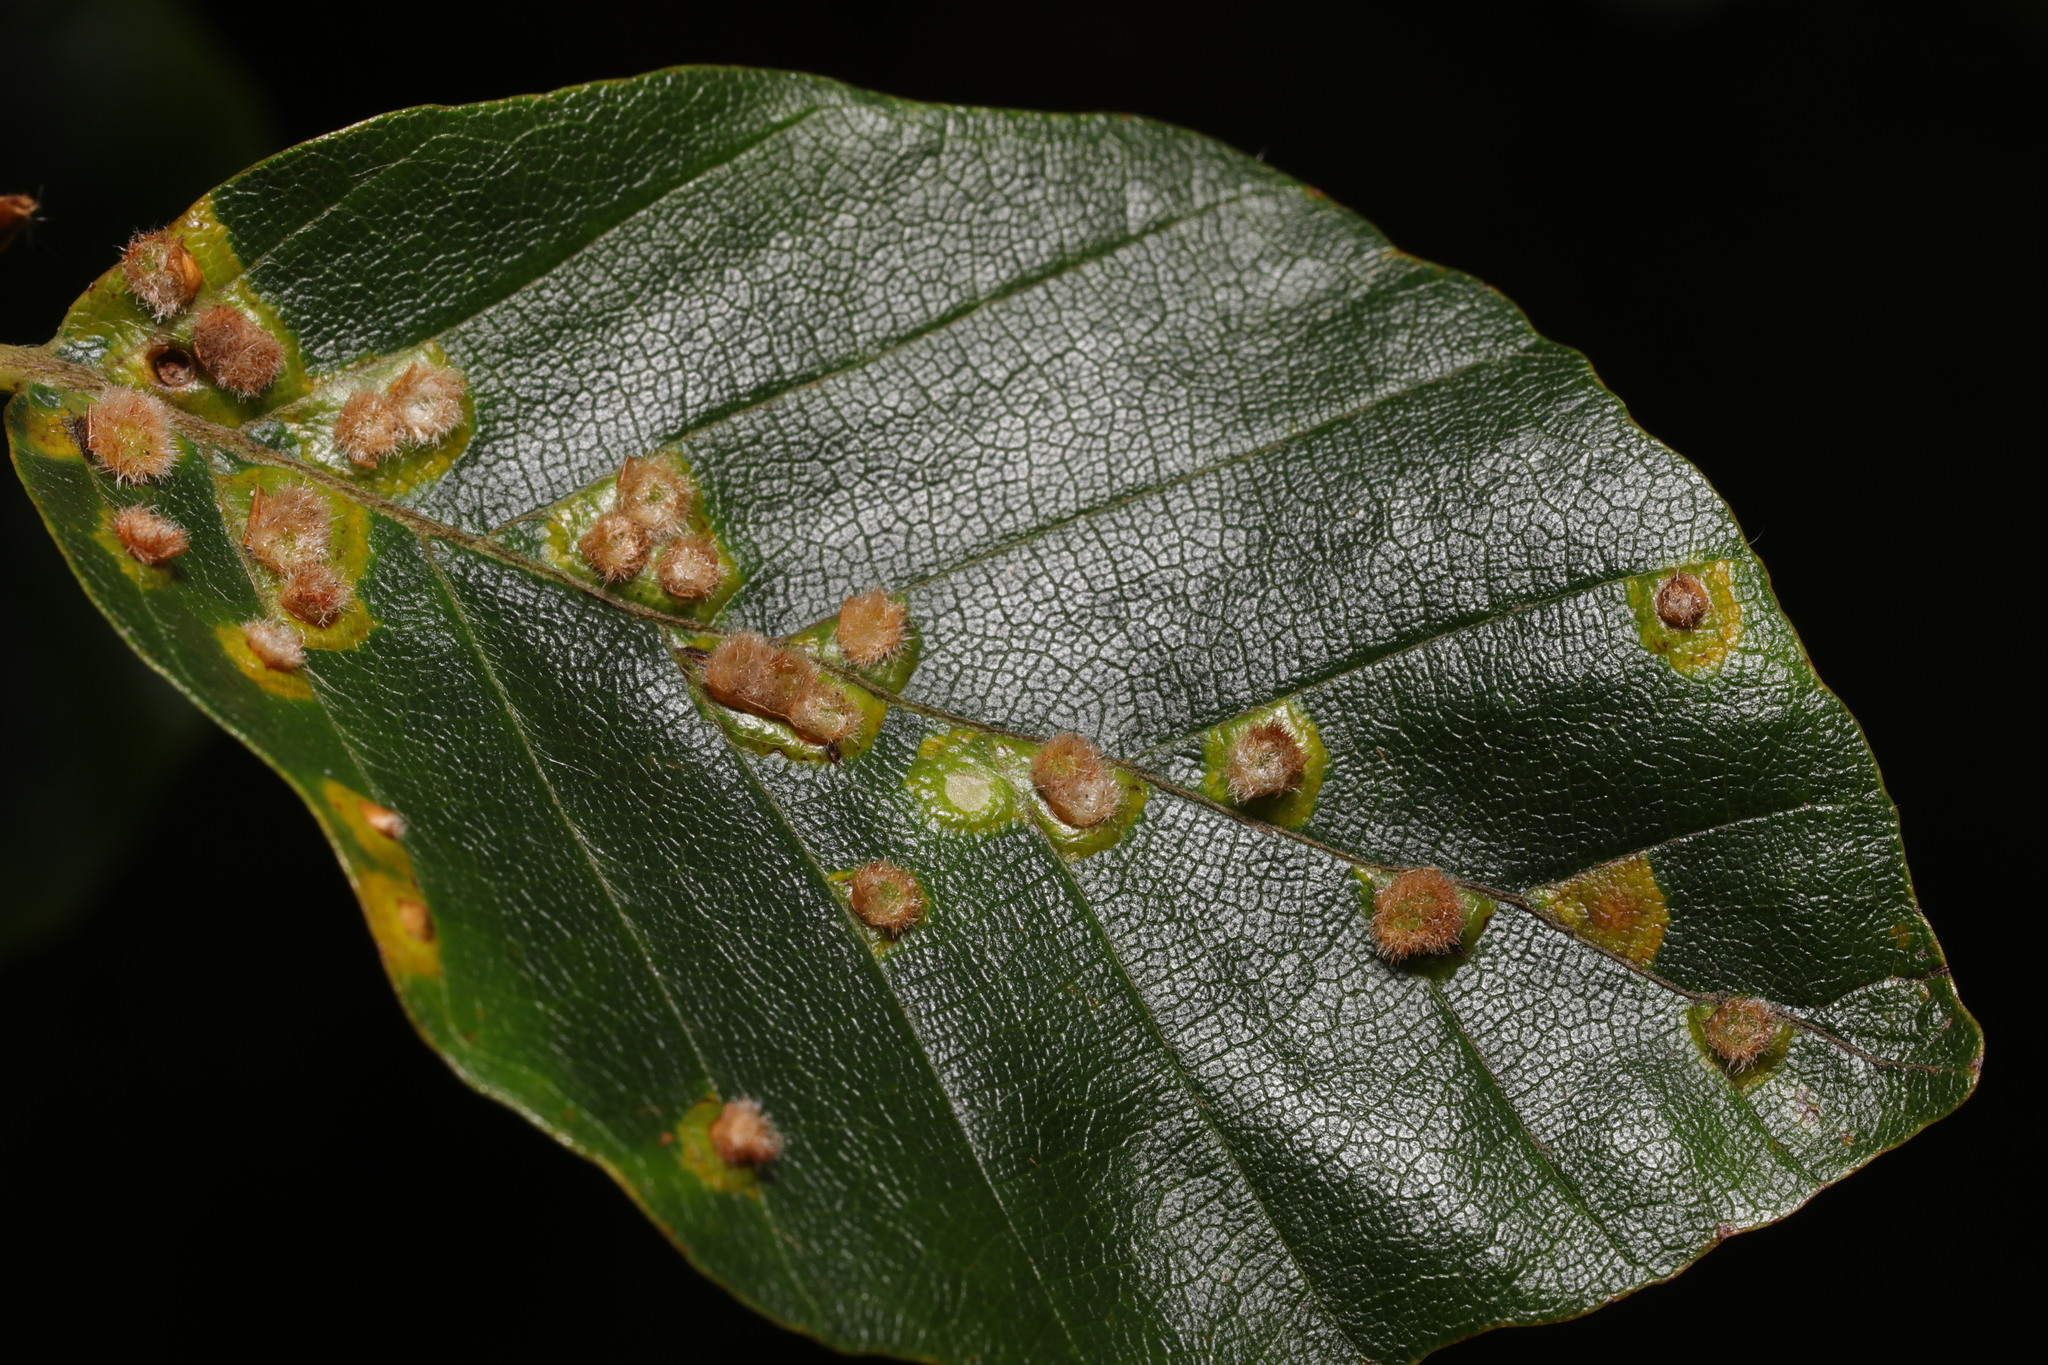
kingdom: Animalia
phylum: Arthropoda
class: Insecta
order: Diptera
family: Cecidomyiidae
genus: Hartigiola
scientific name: Hartigiola annulipes
